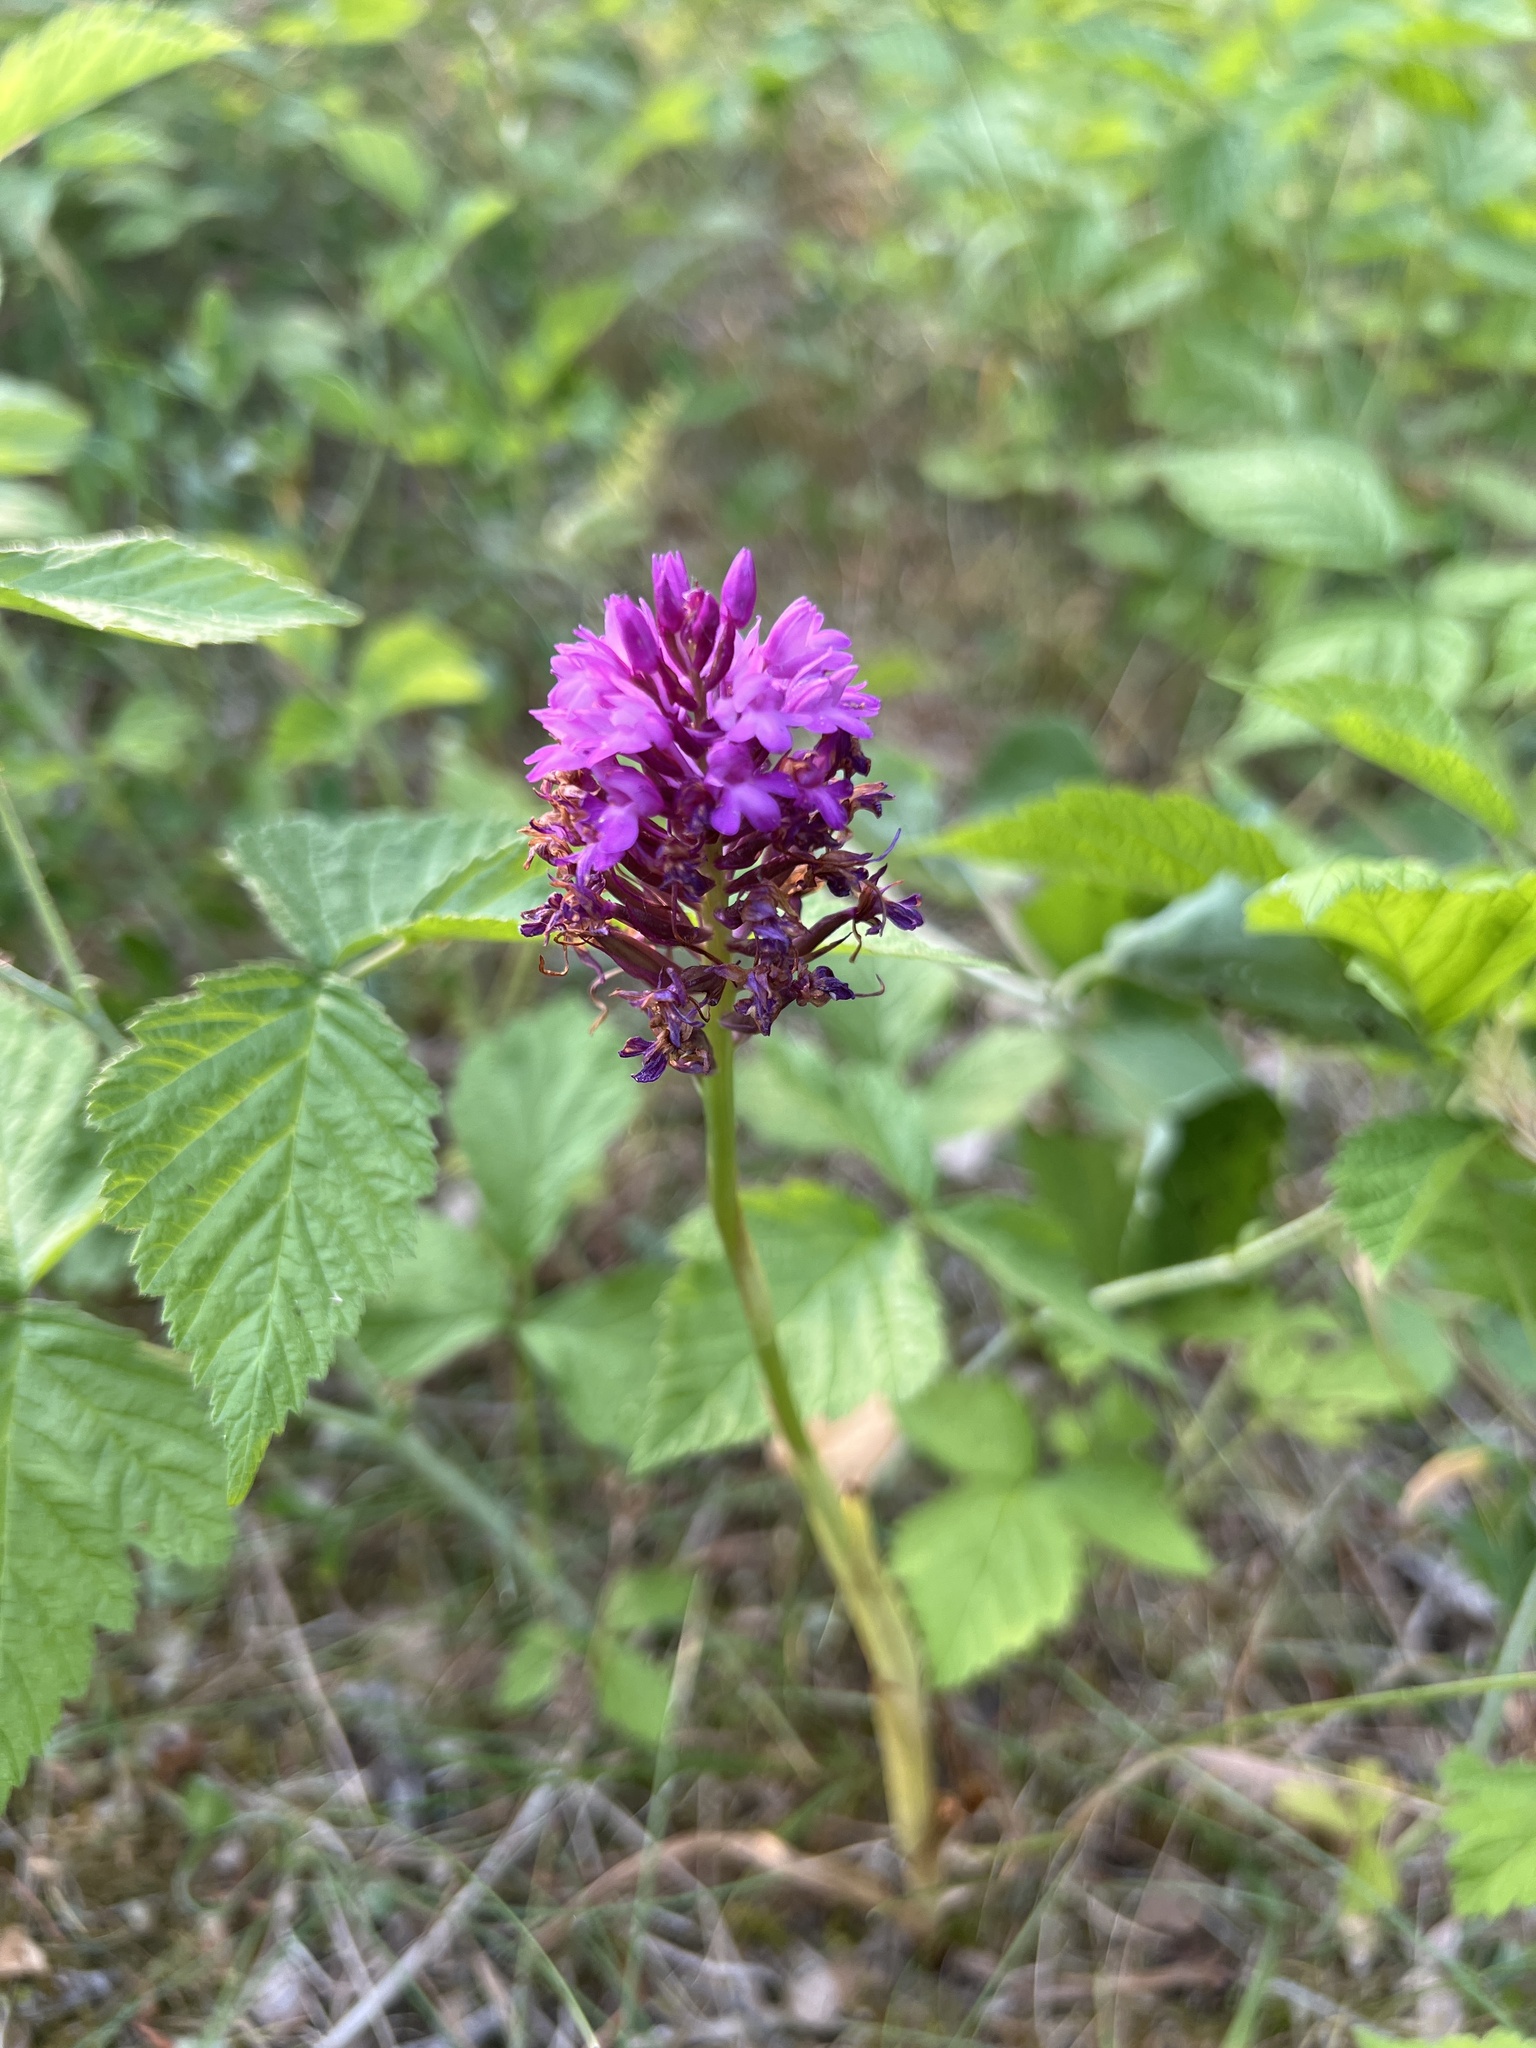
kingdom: Plantae
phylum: Tracheophyta
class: Liliopsida
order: Asparagales
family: Orchidaceae
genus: Anacamptis
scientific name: Anacamptis pyramidalis
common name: Pyramidal orchid
